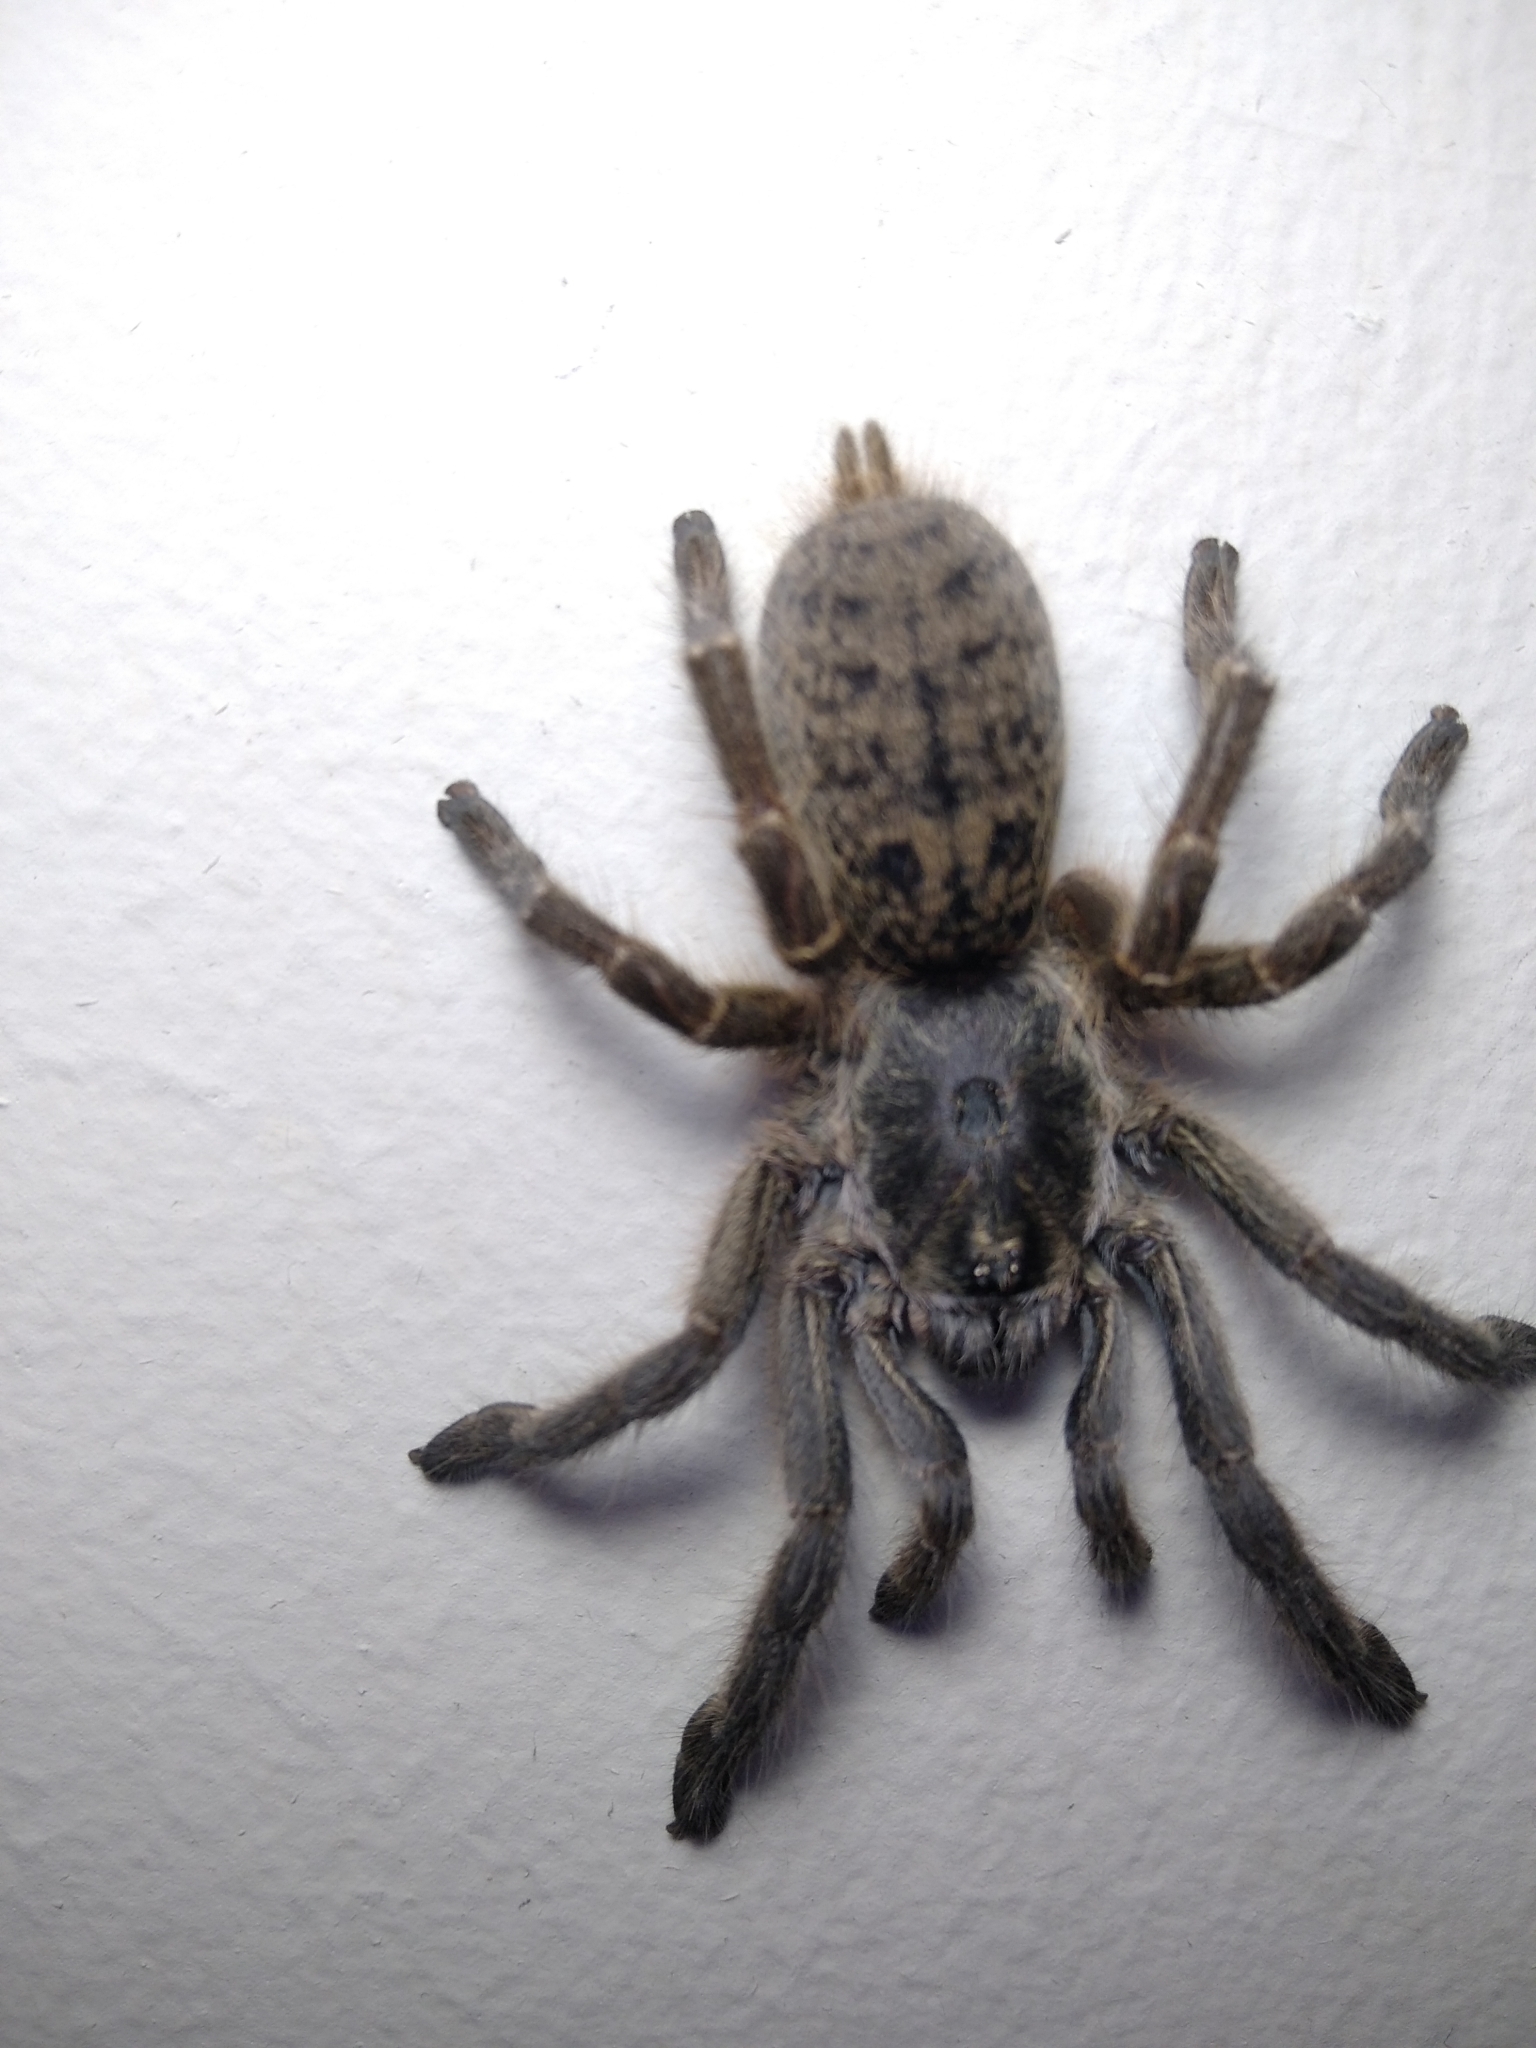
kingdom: Animalia
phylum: Arthropoda
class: Arachnida
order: Araneae
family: Theraphosidae
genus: Ceratogyrus
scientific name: Ceratogyrus sanderi
